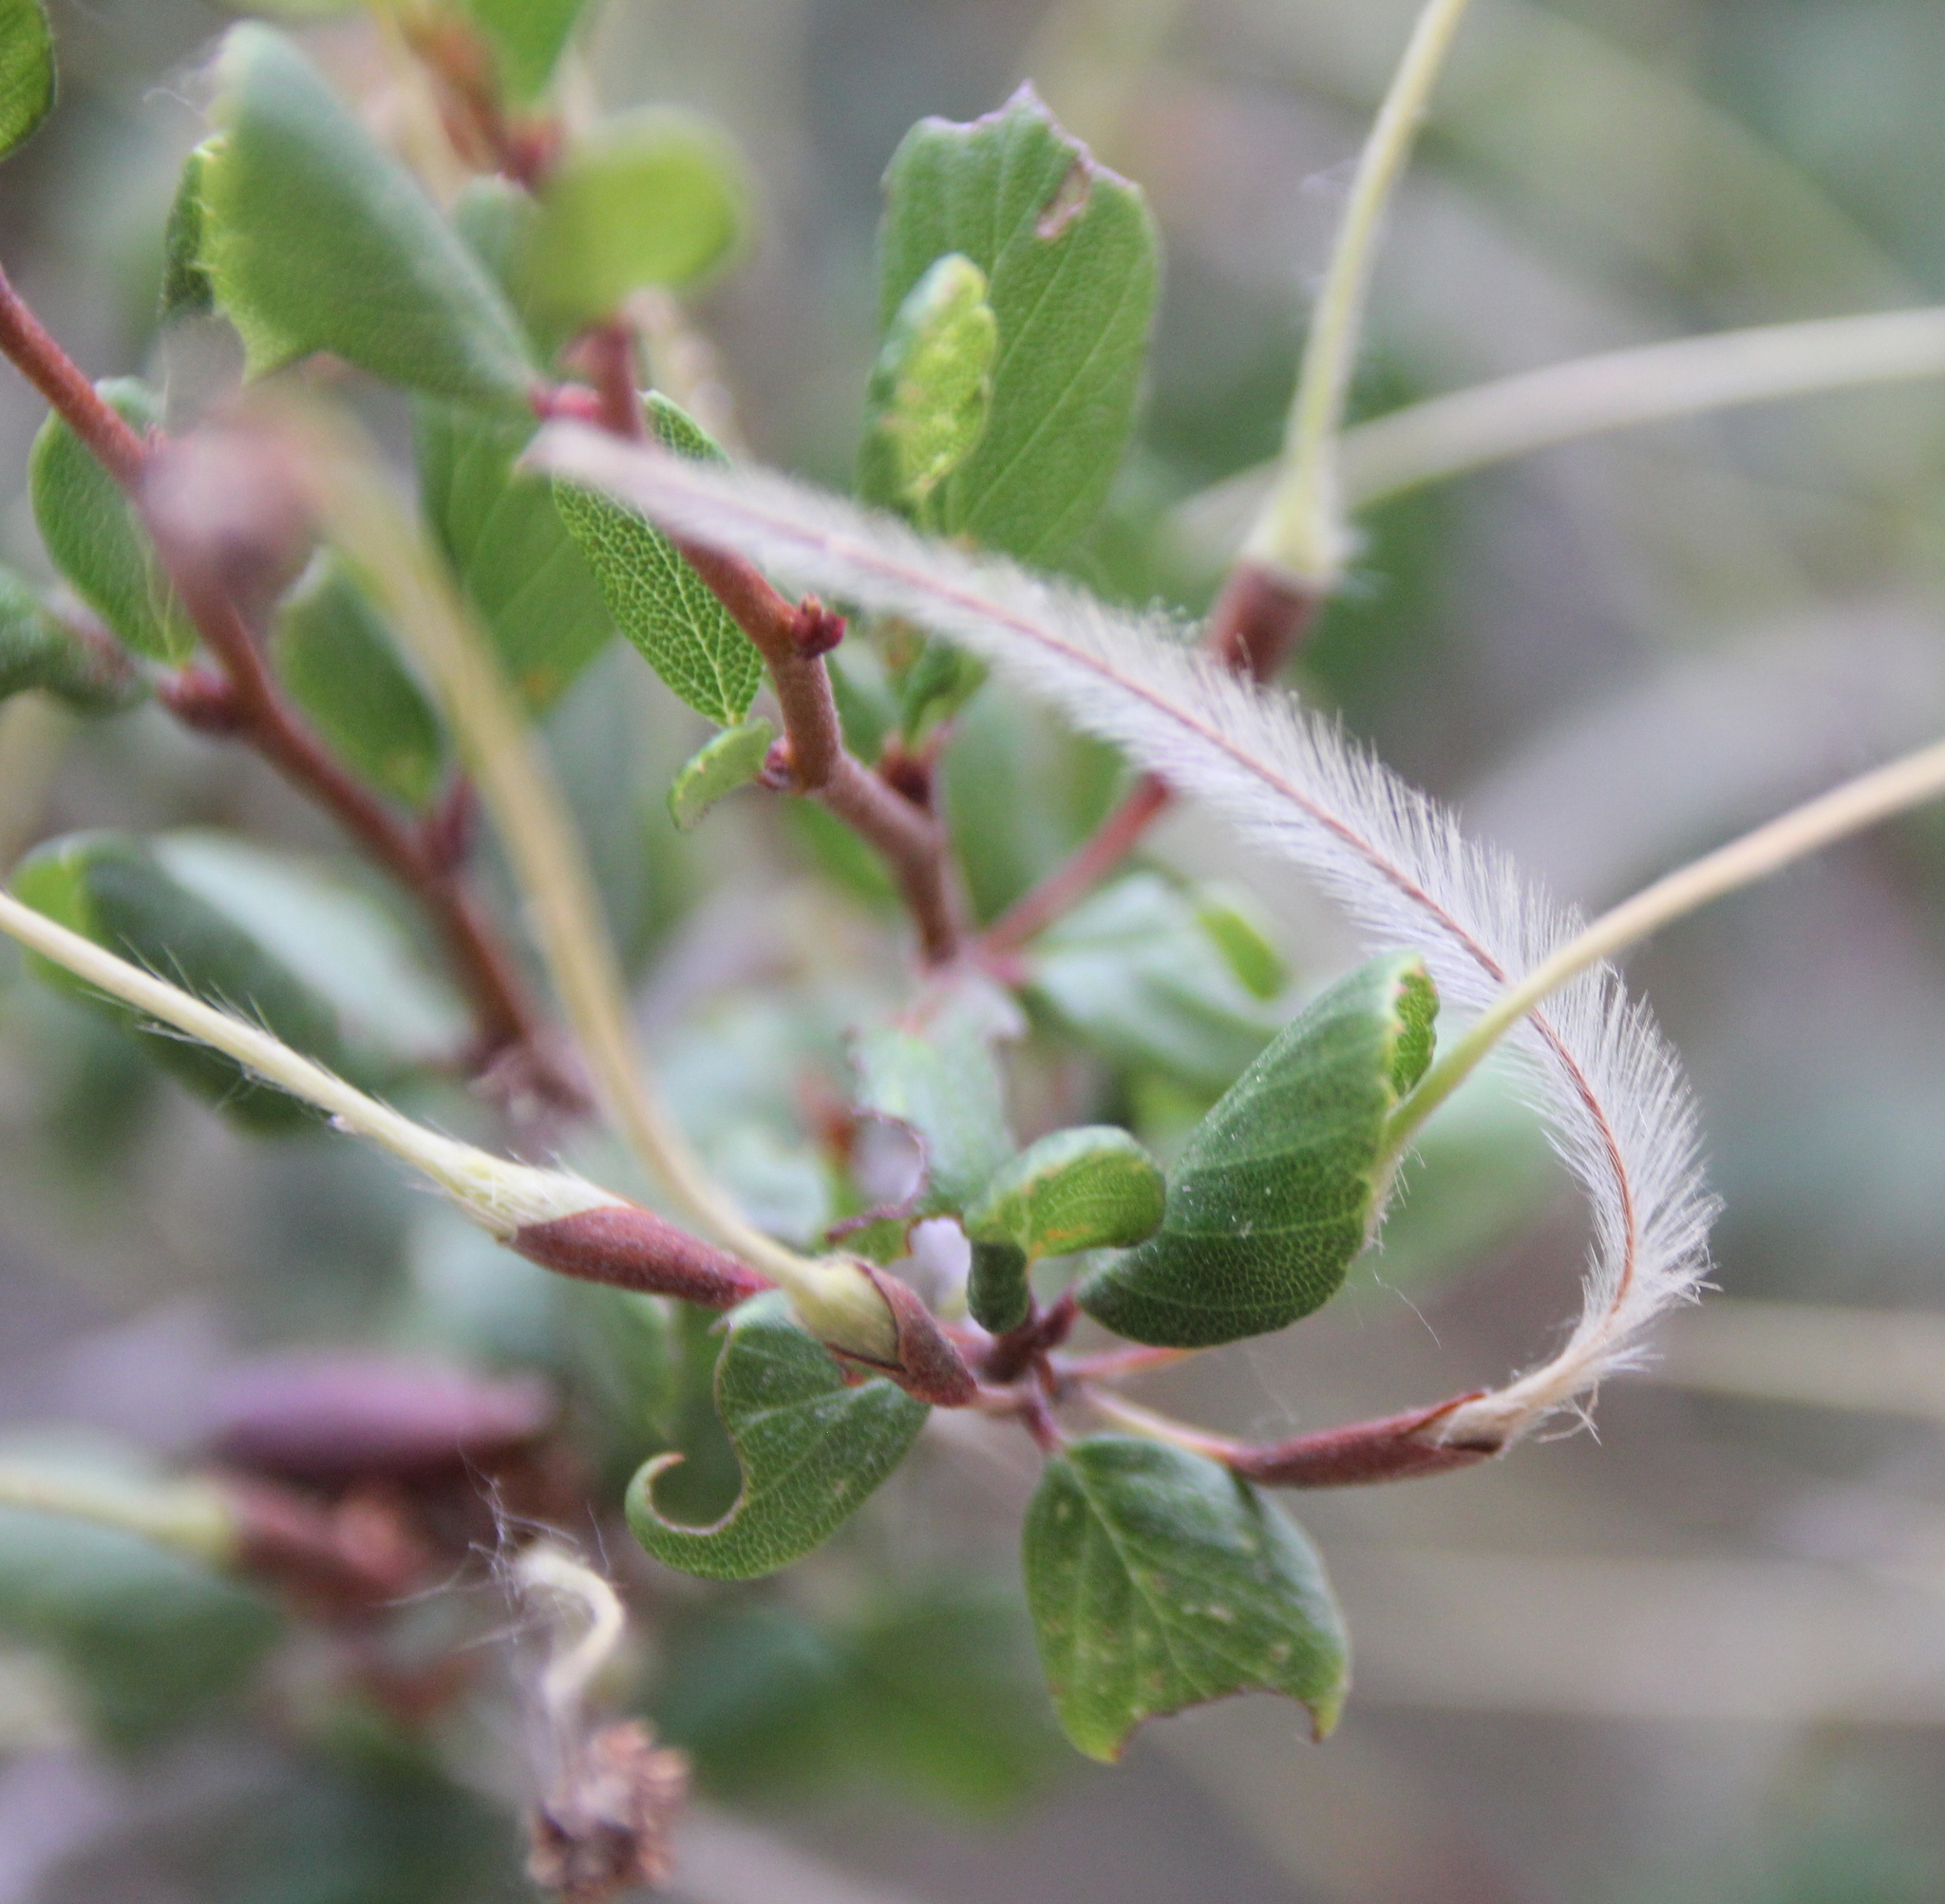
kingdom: Plantae
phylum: Tracheophyta
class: Magnoliopsida
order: Rosales
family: Rosaceae
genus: Cercocarpus
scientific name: Cercocarpus montanus
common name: Alder-leaf cercocarpus
